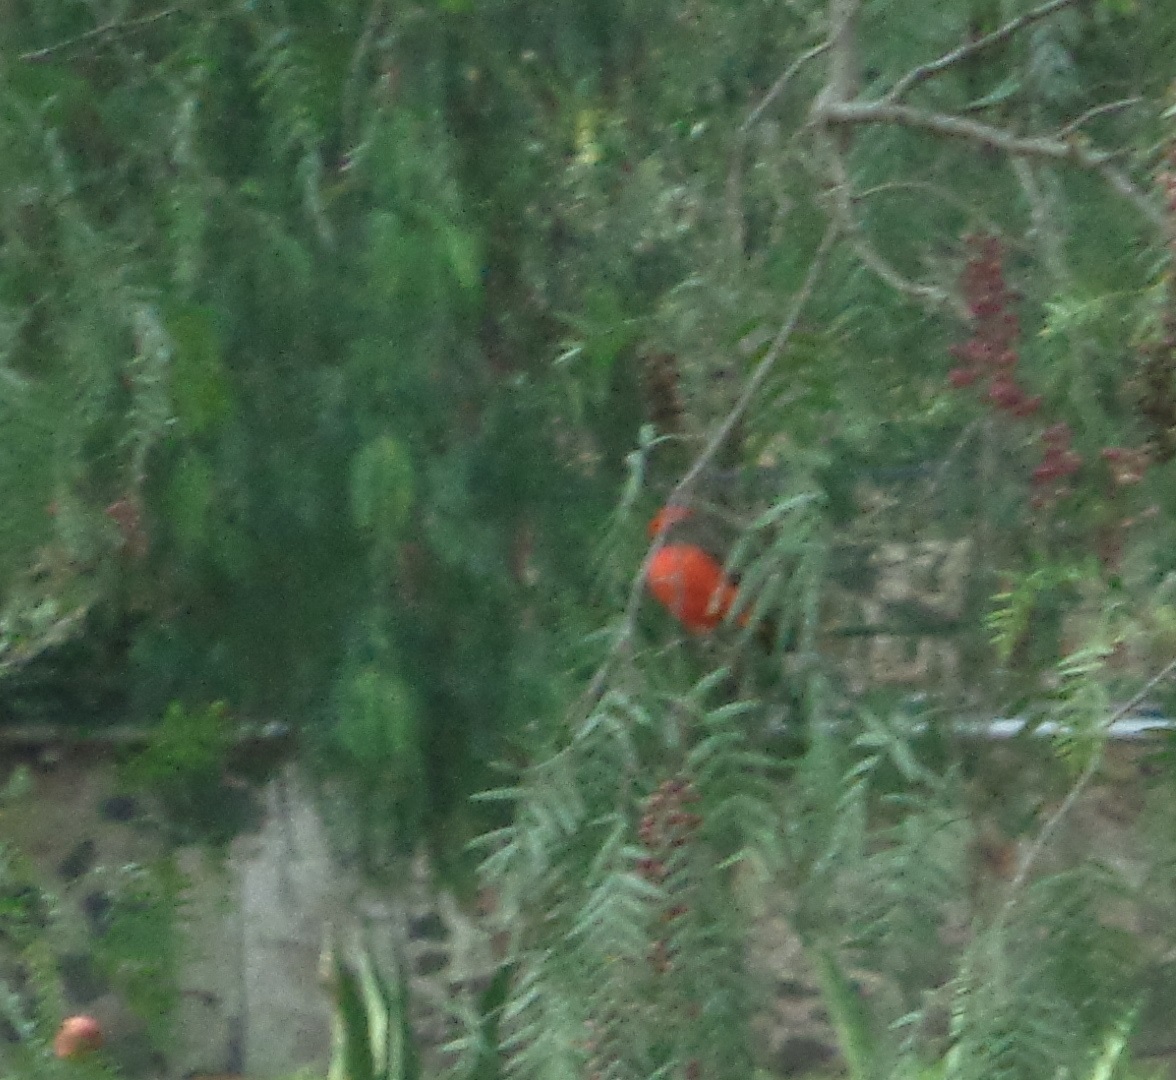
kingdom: Animalia
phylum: Chordata
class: Aves
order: Passeriformes
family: Tyrannidae
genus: Pyrocephalus
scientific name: Pyrocephalus rubinus
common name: Vermilion flycatcher
